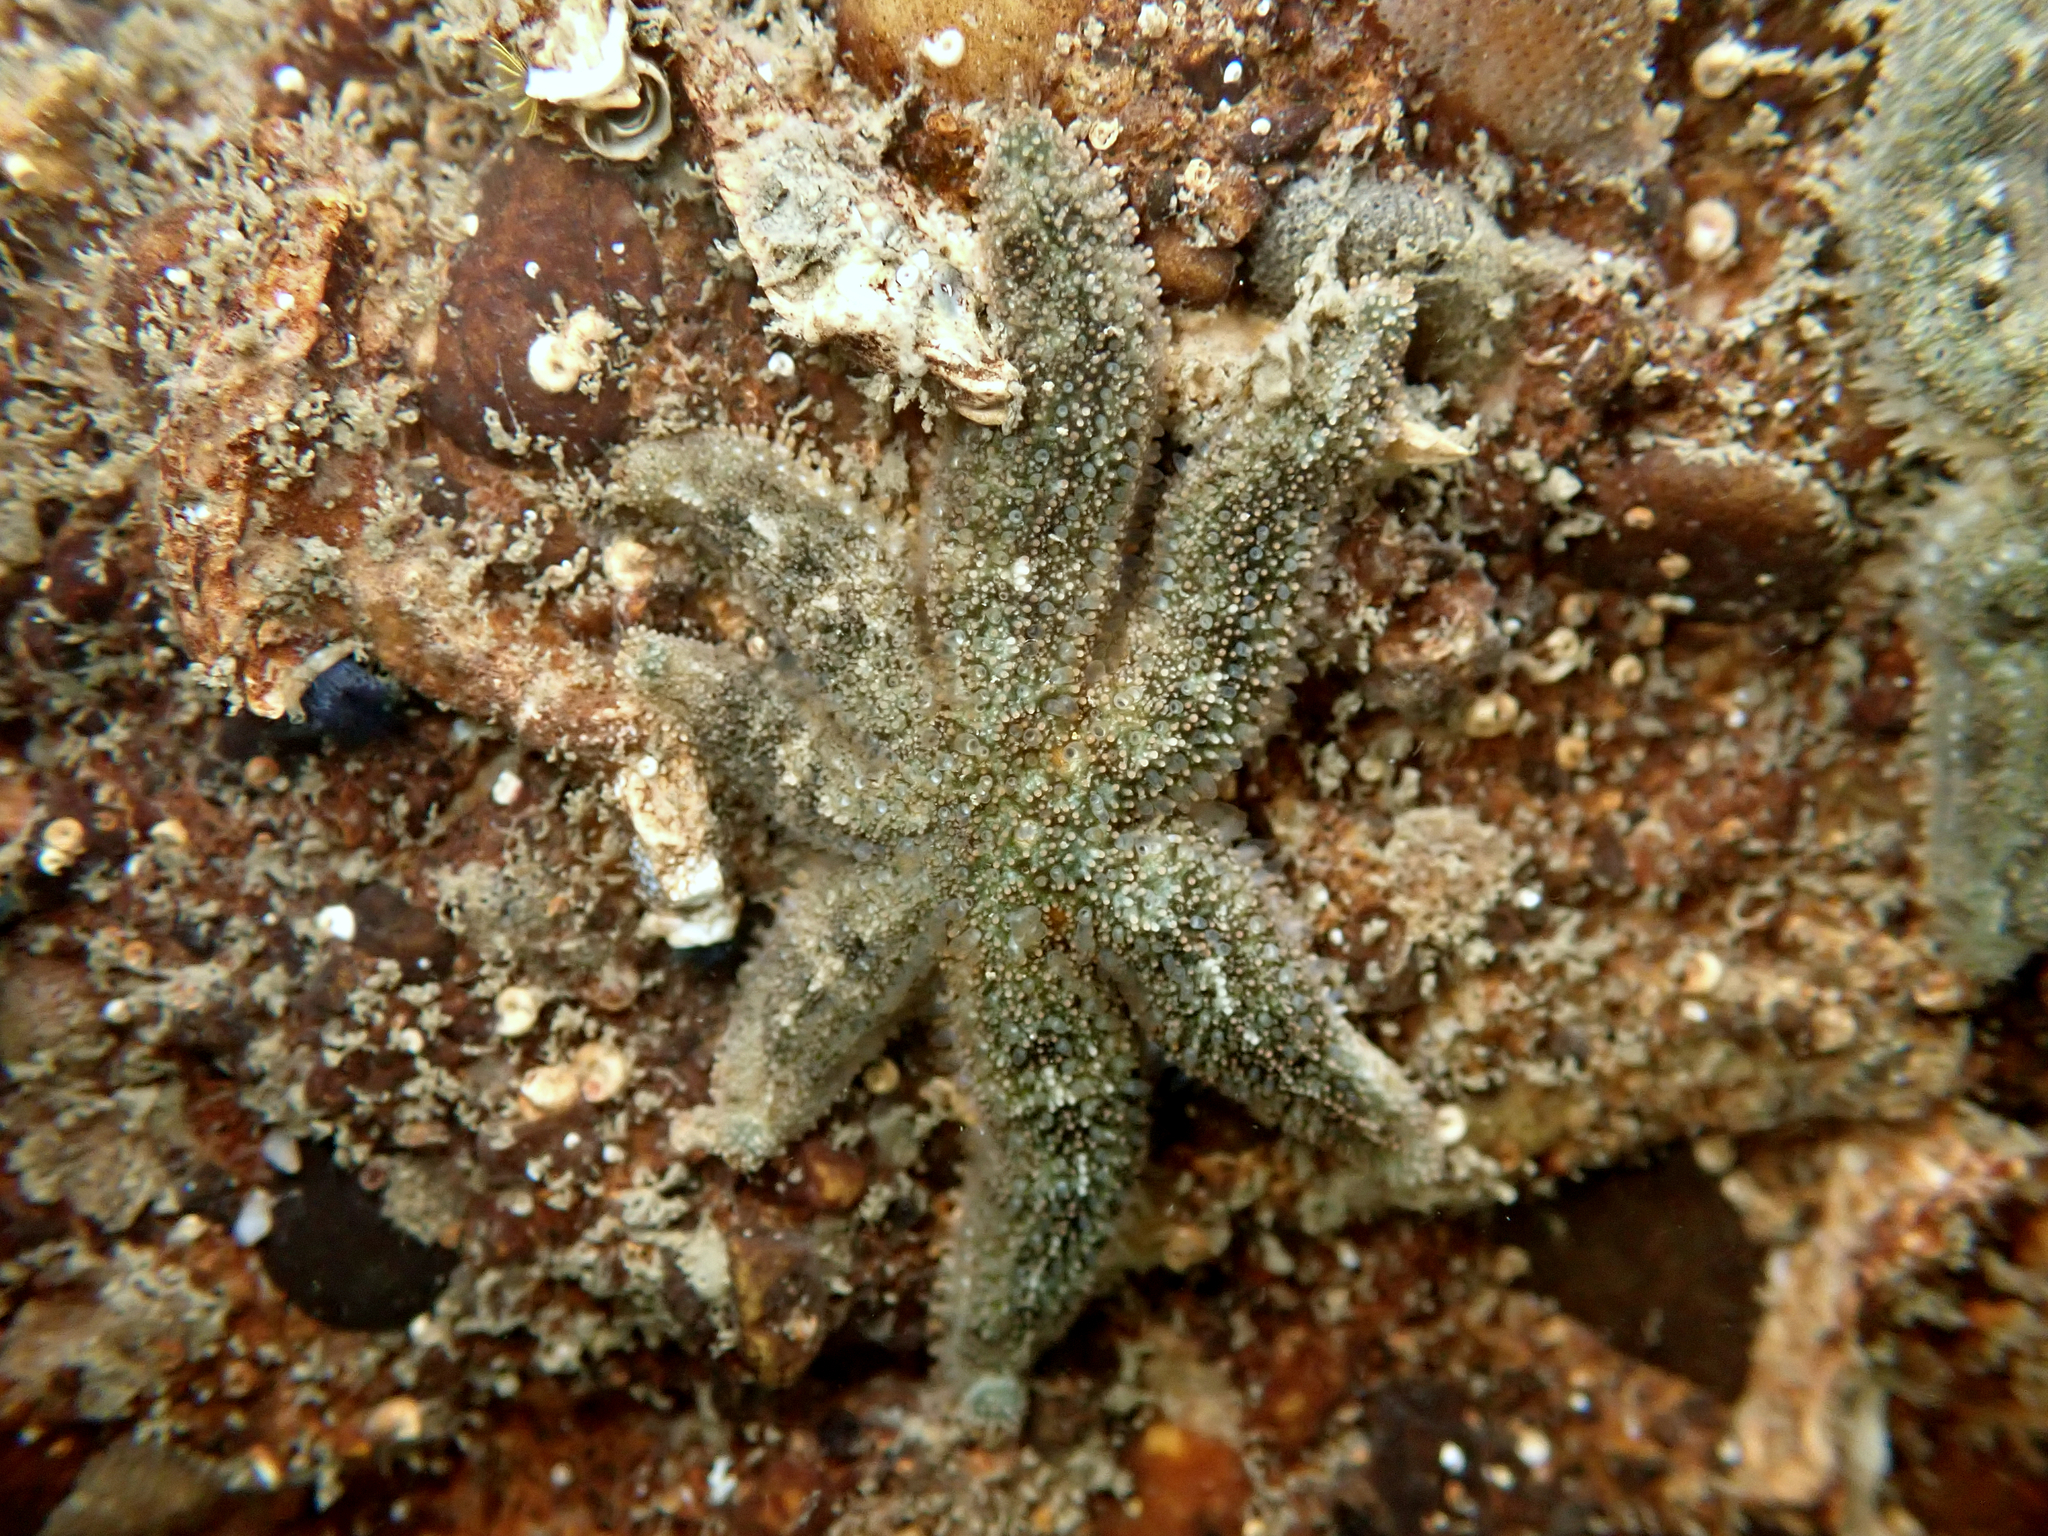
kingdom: Animalia
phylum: Echinodermata
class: Asteroidea
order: Forcipulatida
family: Stichasteridae
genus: Allostichaster
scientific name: Allostichaster polyplax
